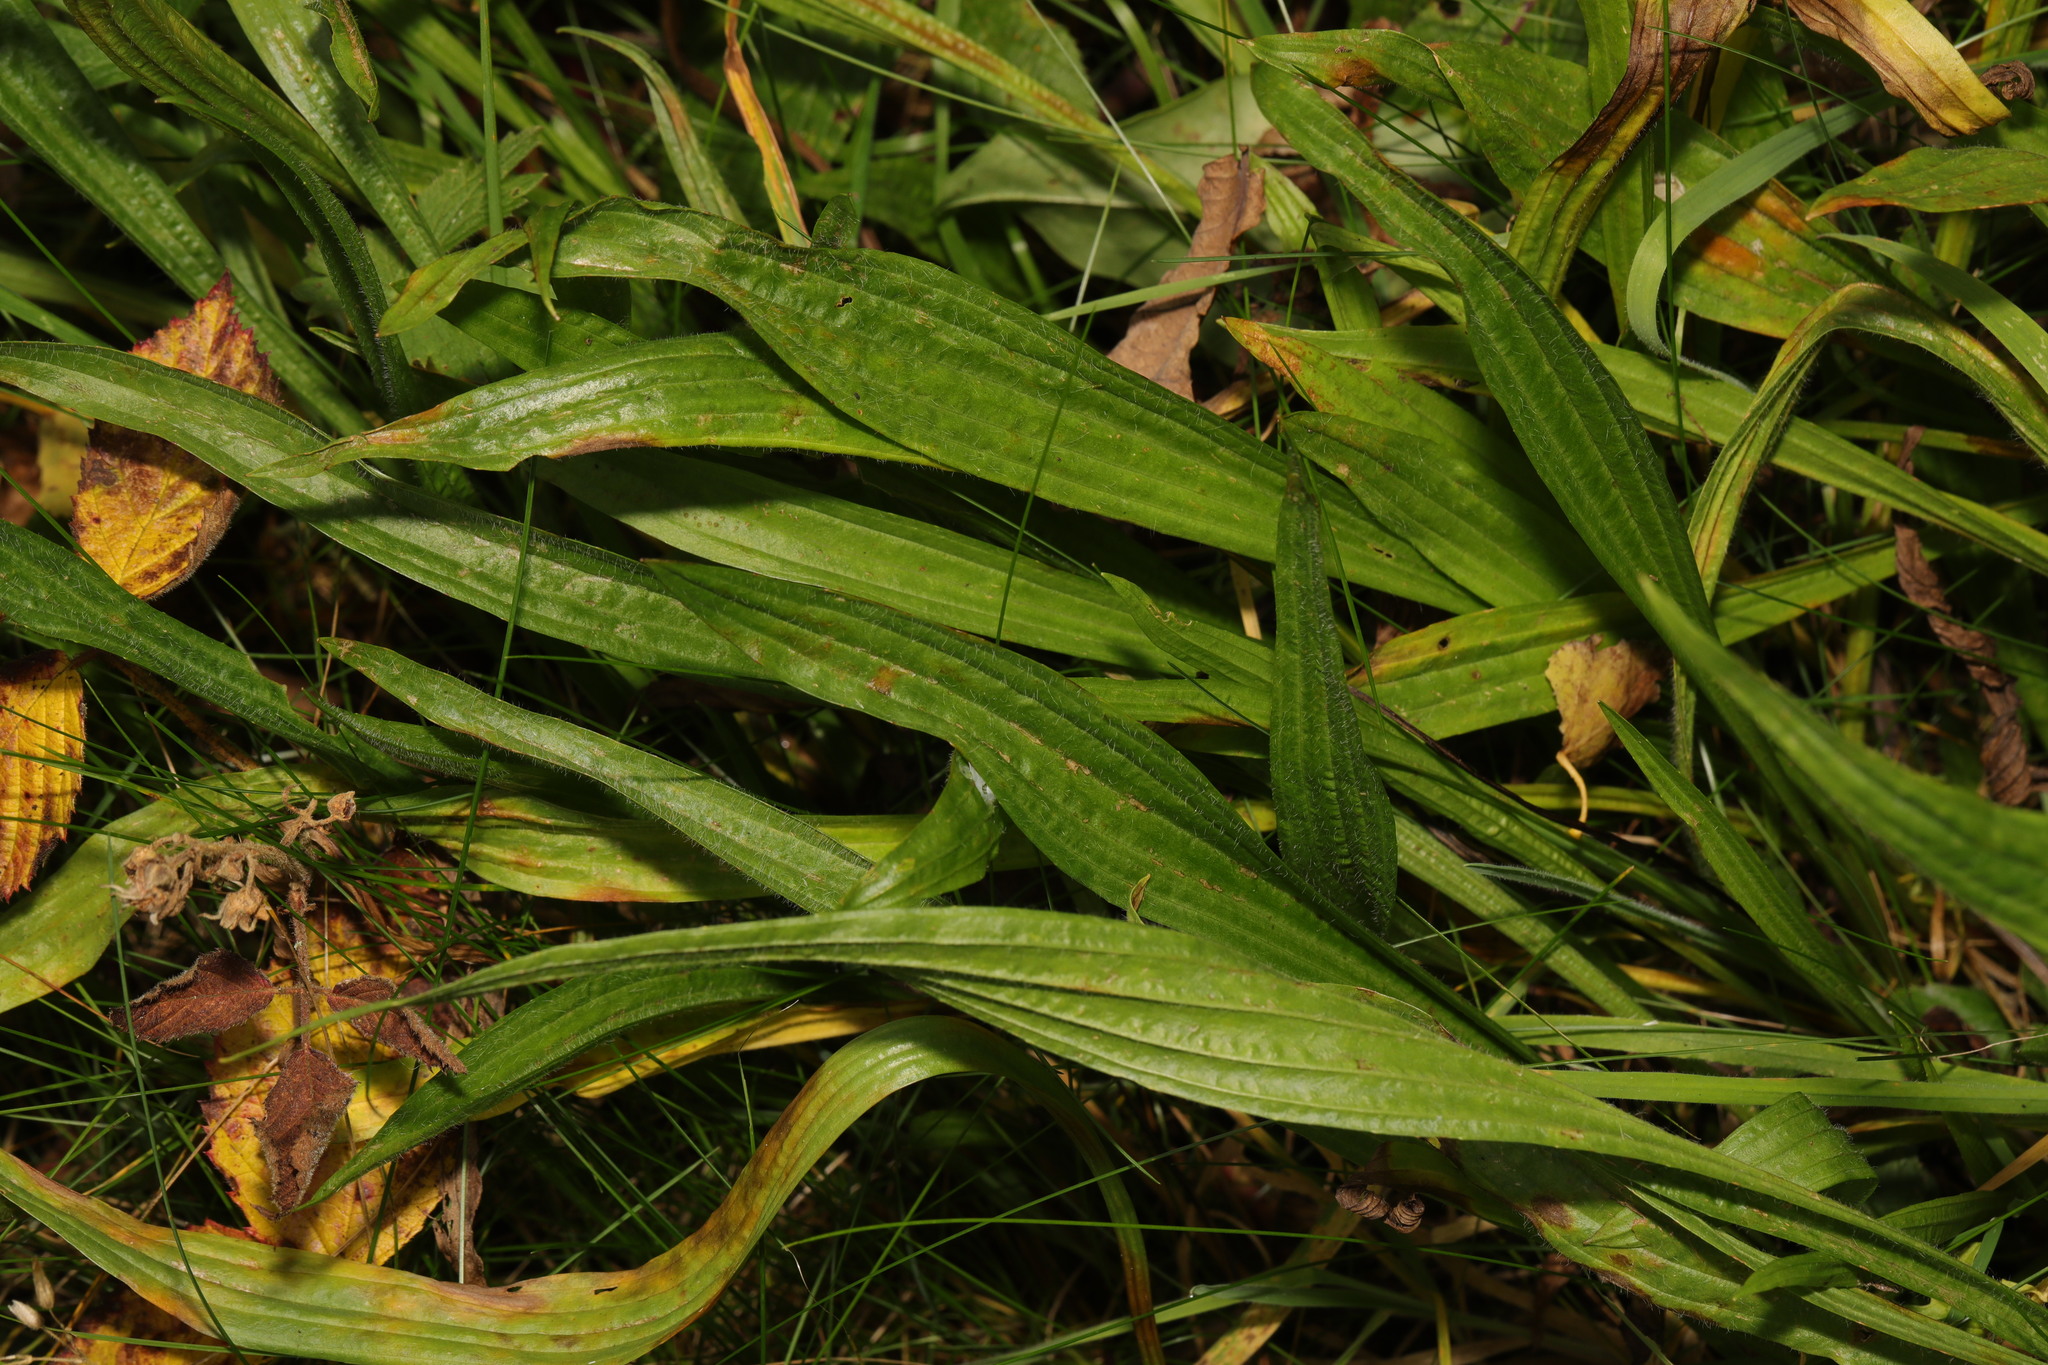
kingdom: Plantae
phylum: Tracheophyta
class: Magnoliopsida
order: Lamiales
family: Plantaginaceae
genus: Plantago
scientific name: Plantago lanceolata
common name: Ribwort plantain
